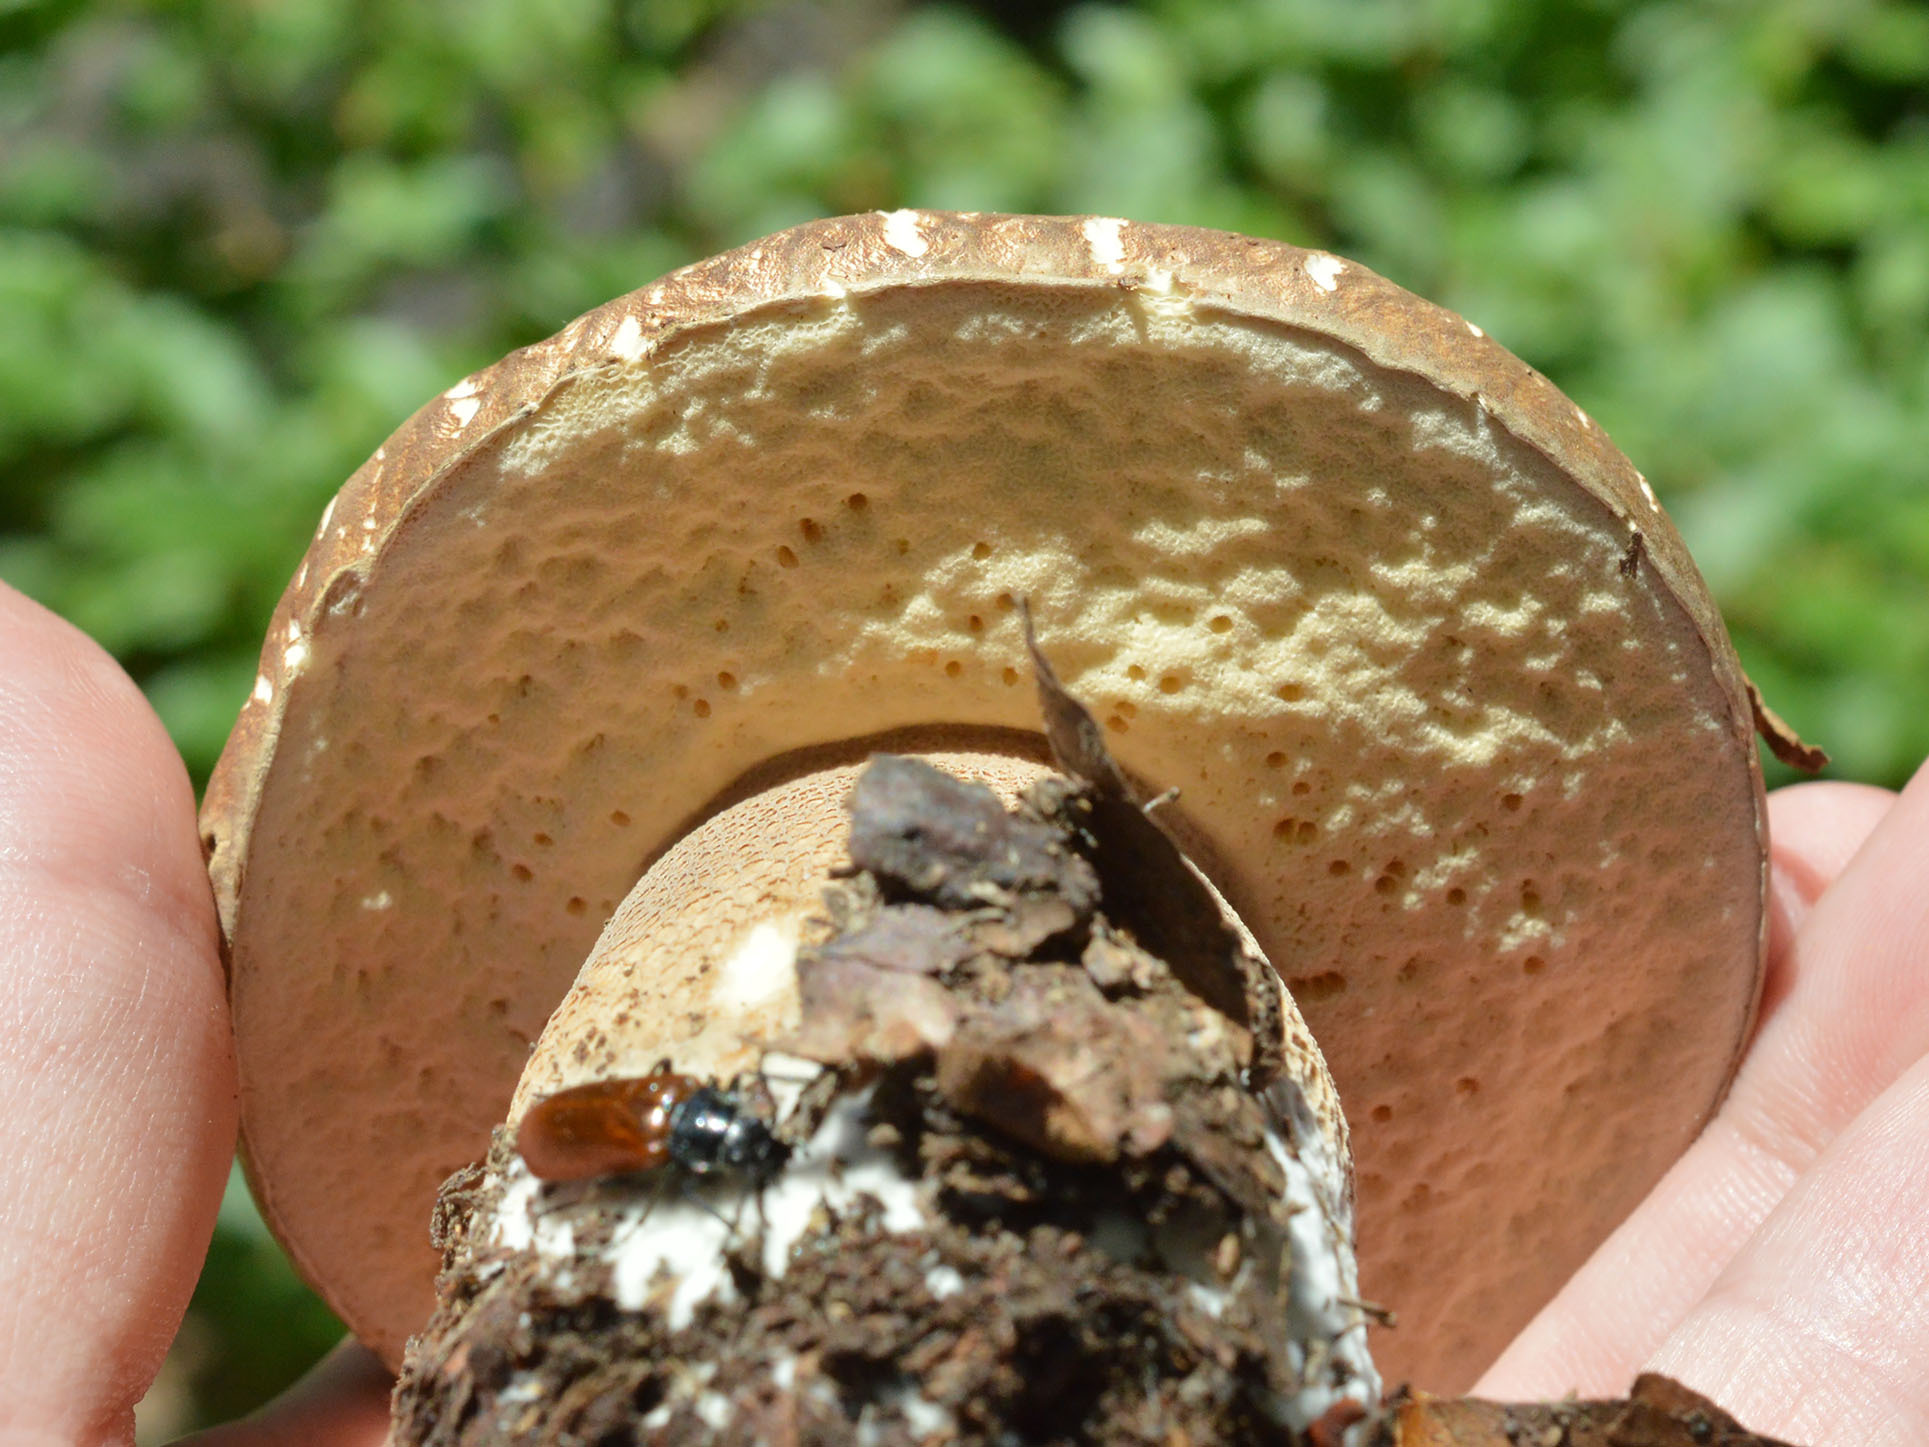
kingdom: Fungi
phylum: Basidiomycota
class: Agaricomycetes
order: Boletales
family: Boletaceae
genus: Boletus
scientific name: Boletus reticulatus
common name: Summer bolete
